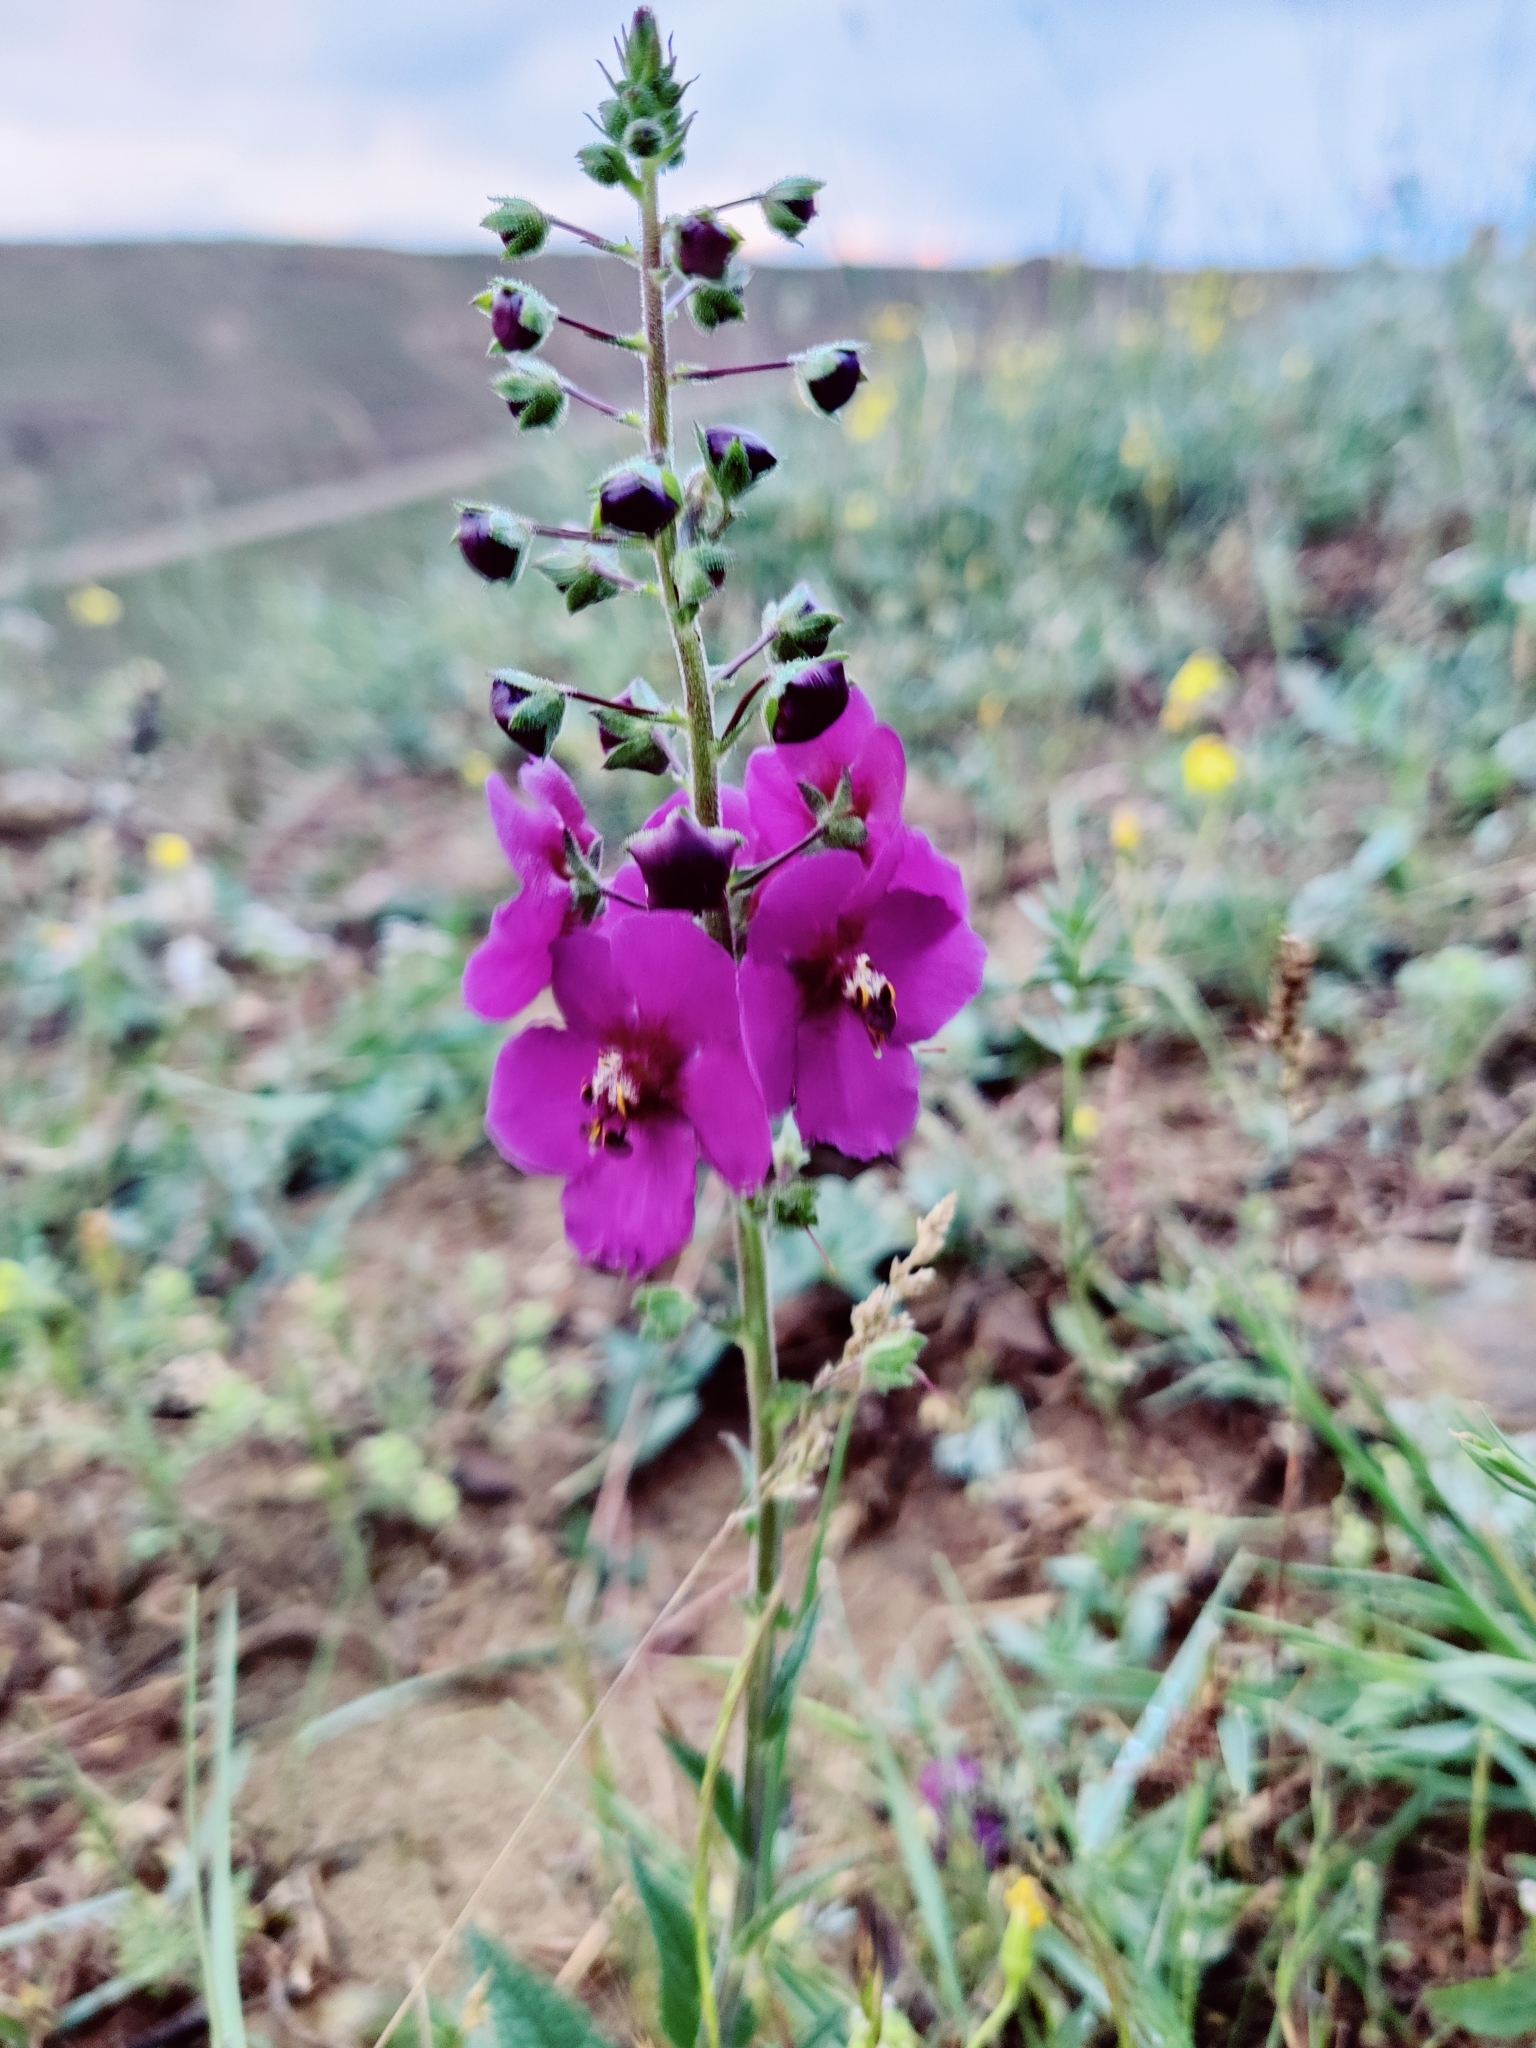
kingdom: Plantae
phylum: Tracheophyta
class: Magnoliopsida
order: Lamiales
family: Scrophulariaceae
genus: Verbascum
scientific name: Verbascum phoeniceum
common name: Purple mullein
